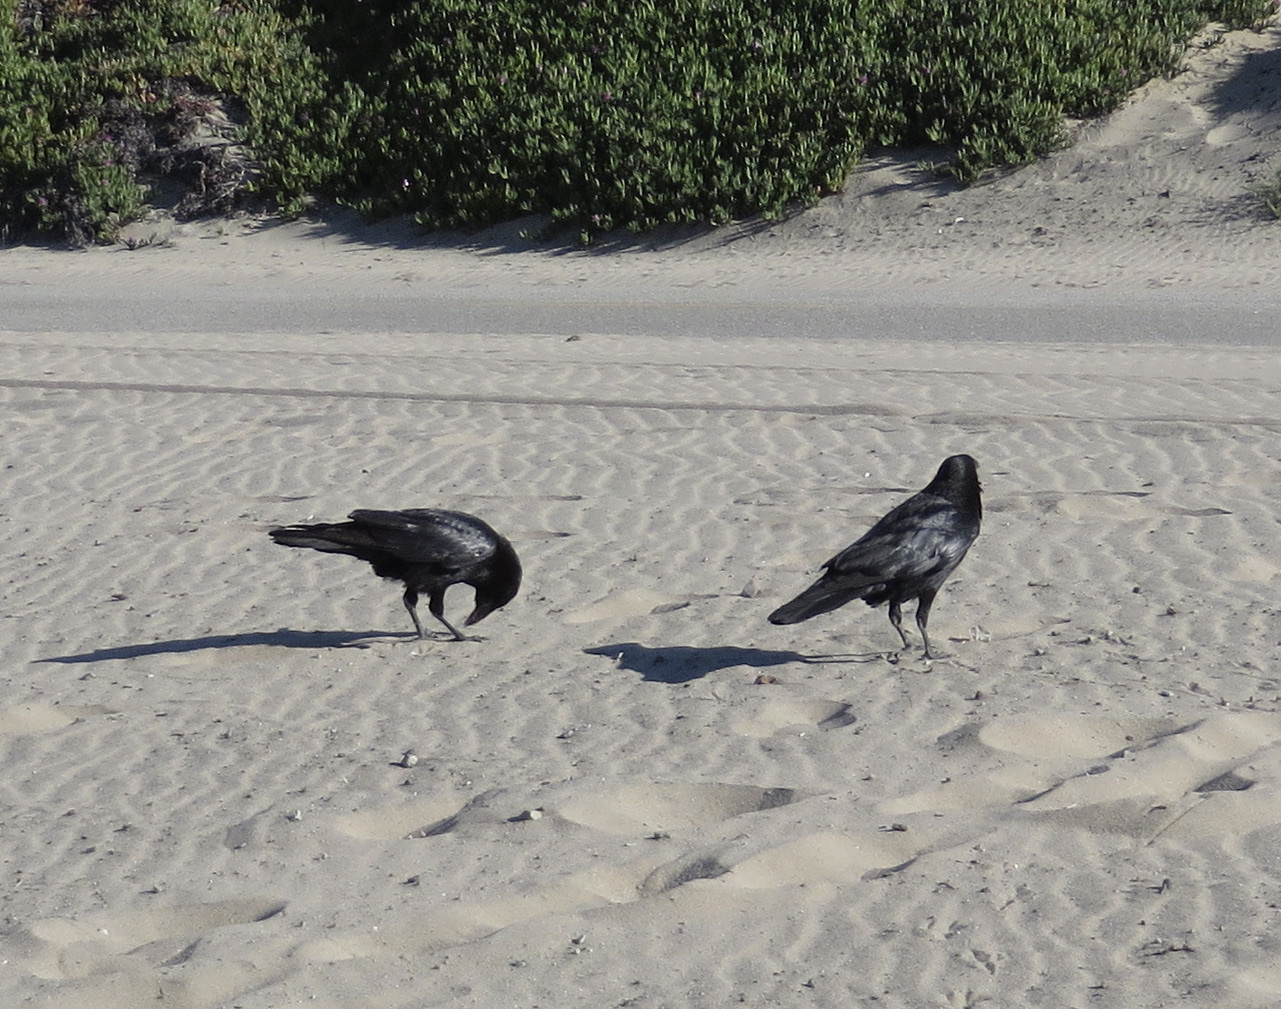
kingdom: Animalia
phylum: Chordata
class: Aves
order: Passeriformes
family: Corvidae
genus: Corvus
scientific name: Corvus corax
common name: Common raven
